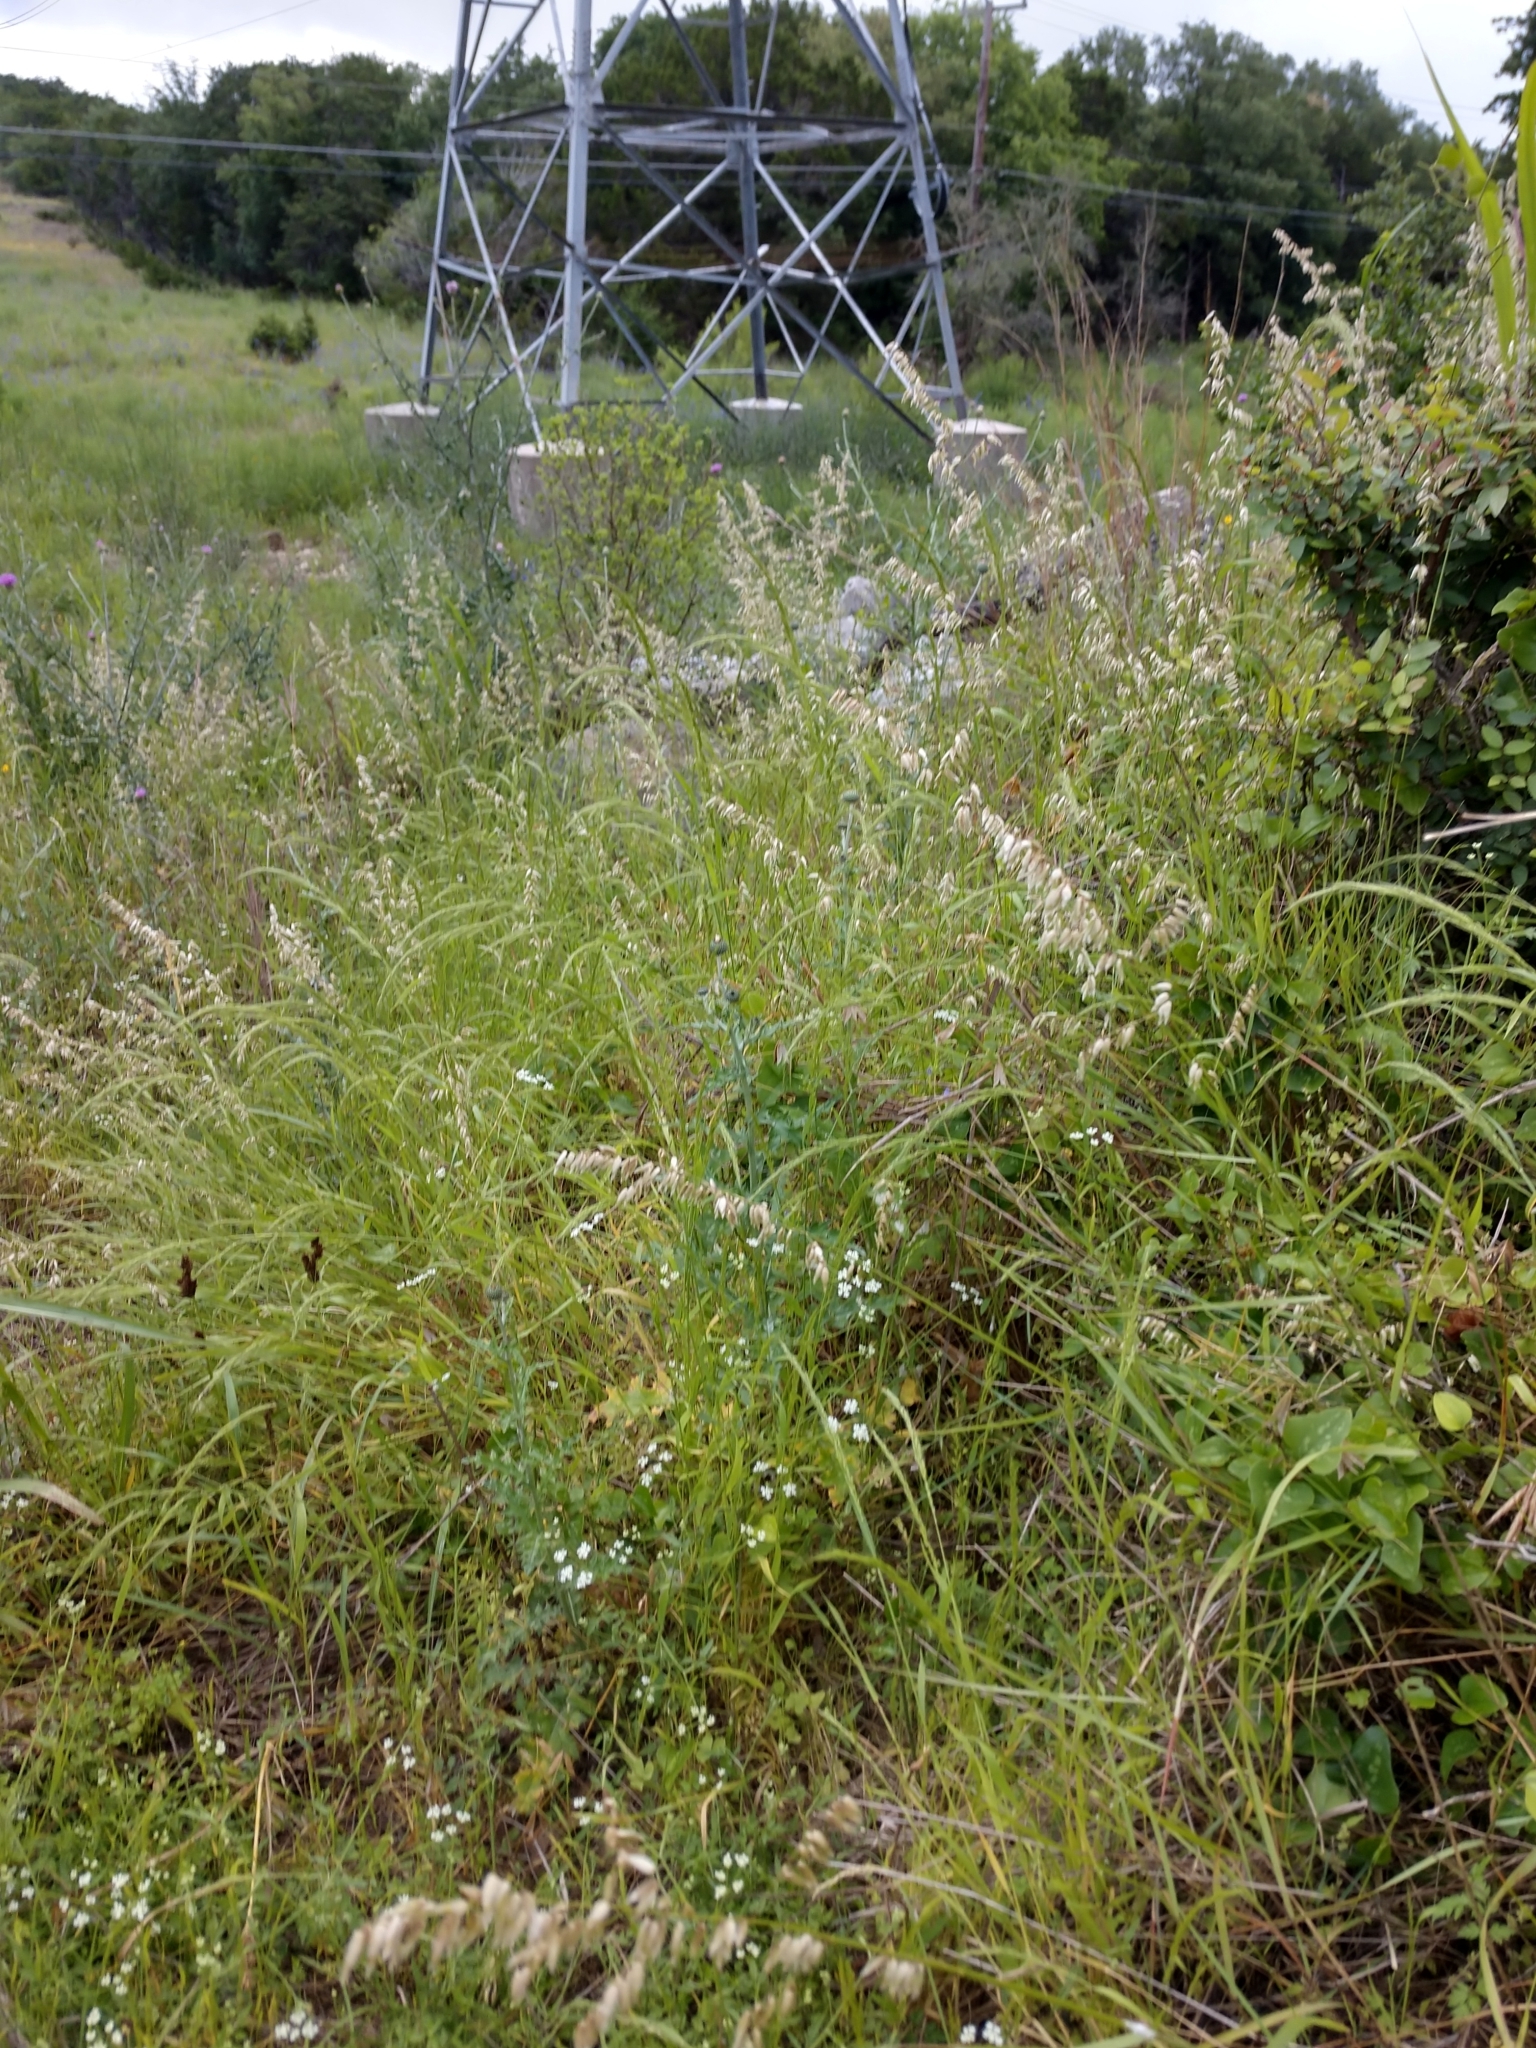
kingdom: Plantae
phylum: Tracheophyta
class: Liliopsida
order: Poales
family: Poaceae
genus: Melica
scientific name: Melica nitens
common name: Three-flower melic
